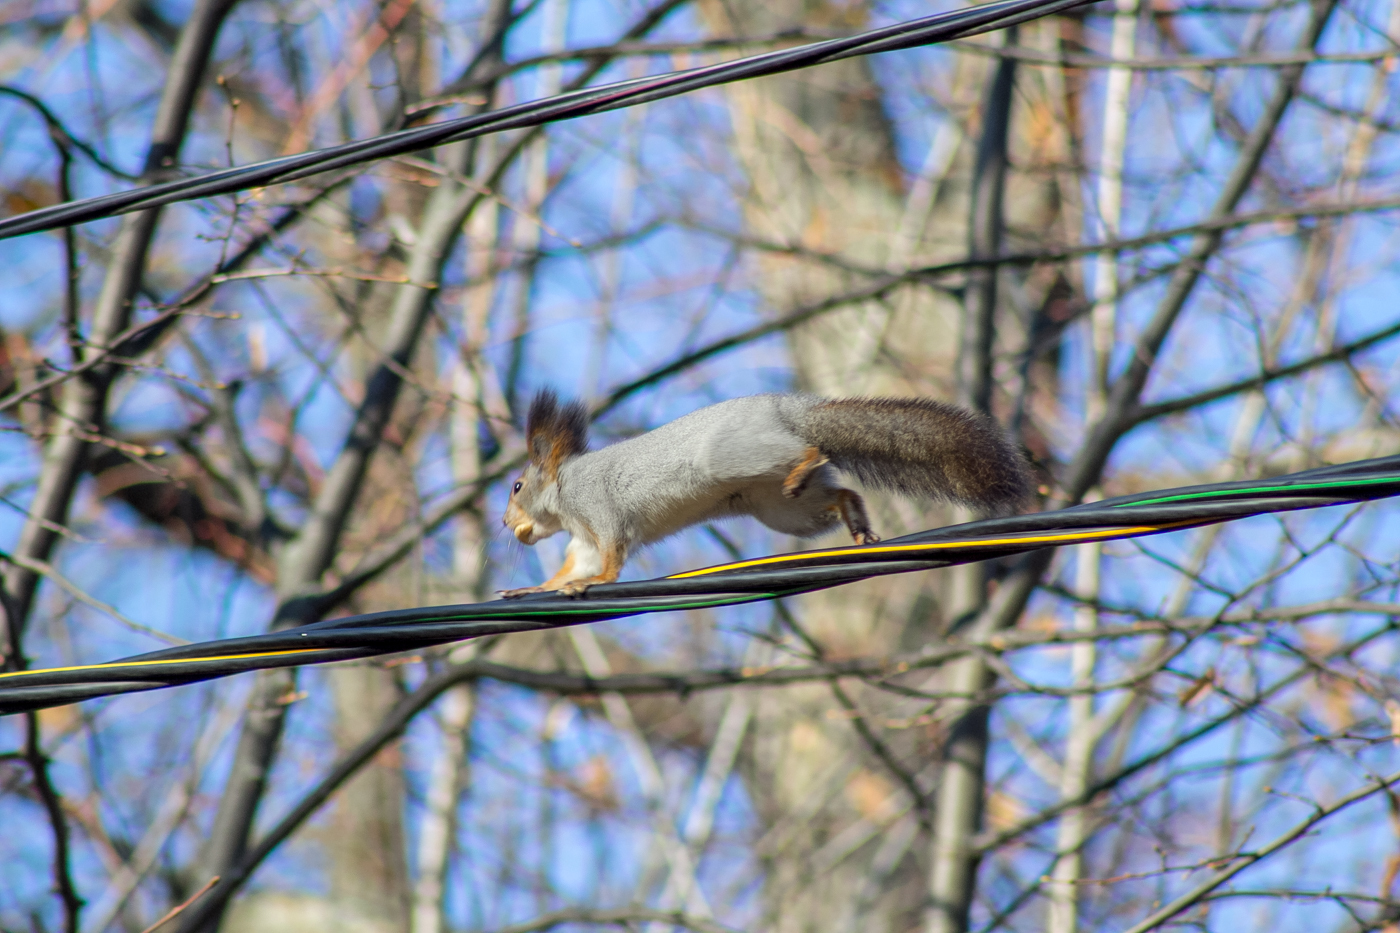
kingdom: Animalia
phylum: Chordata
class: Mammalia
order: Rodentia
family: Sciuridae
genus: Sciurus
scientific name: Sciurus vulgaris
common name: Eurasian red squirrel
